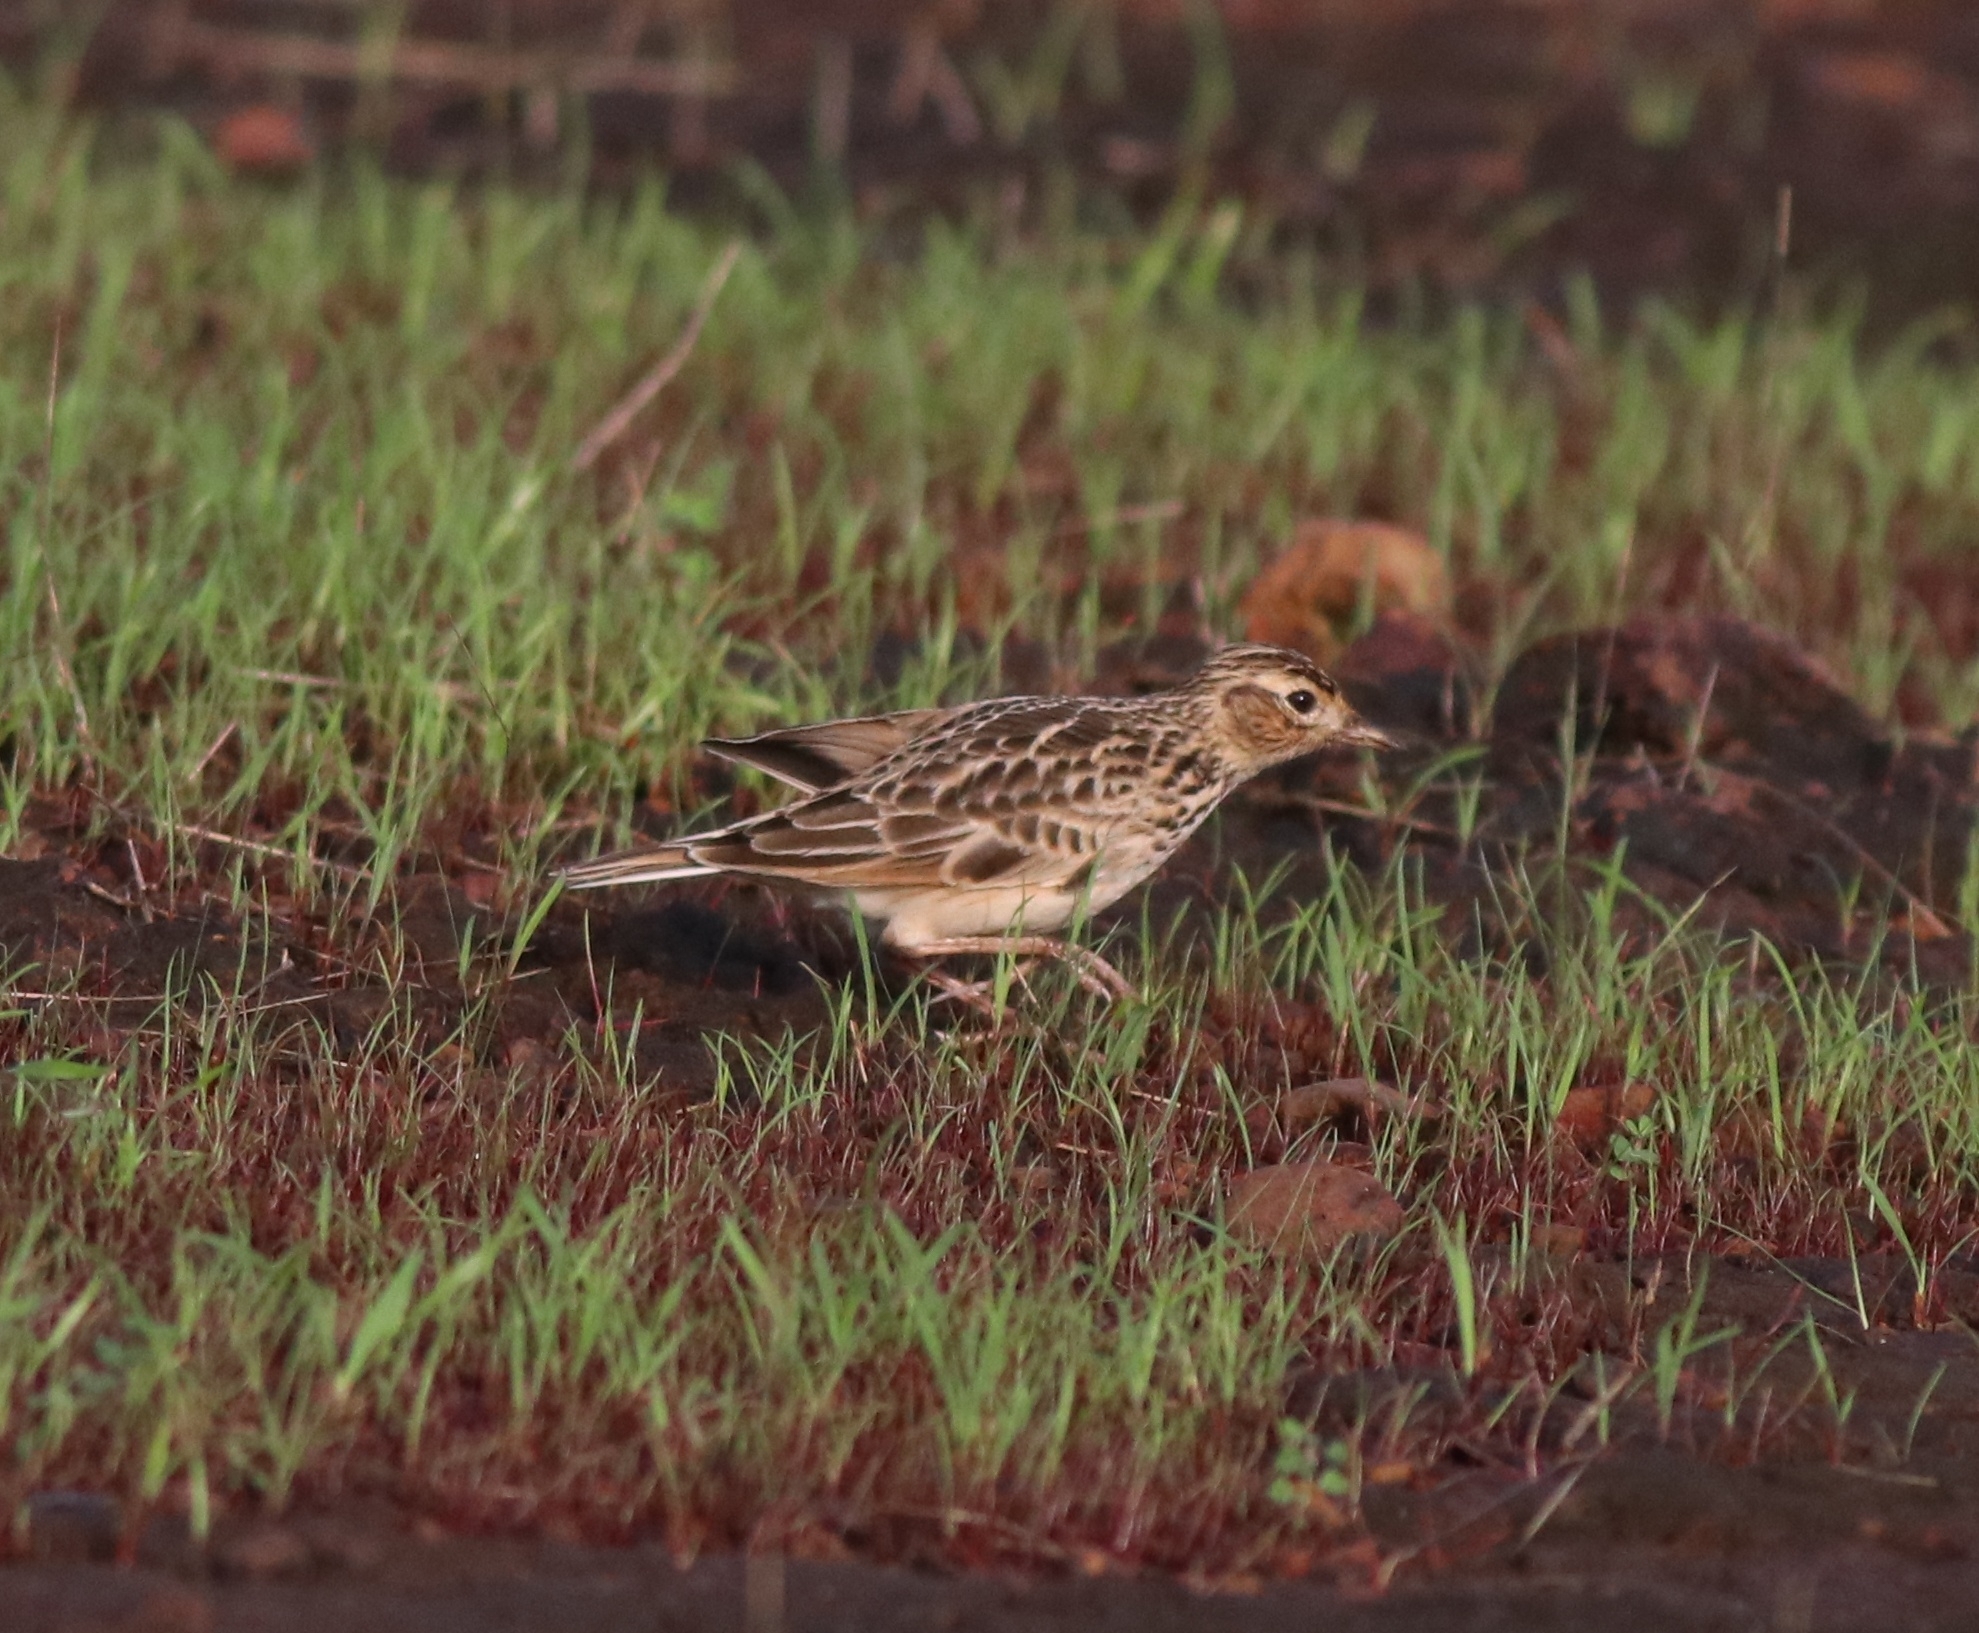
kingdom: Animalia
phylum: Chordata
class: Aves
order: Passeriformes
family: Alaudidae
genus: Alauda
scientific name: Alauda gulgula
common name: Oriental skylark
